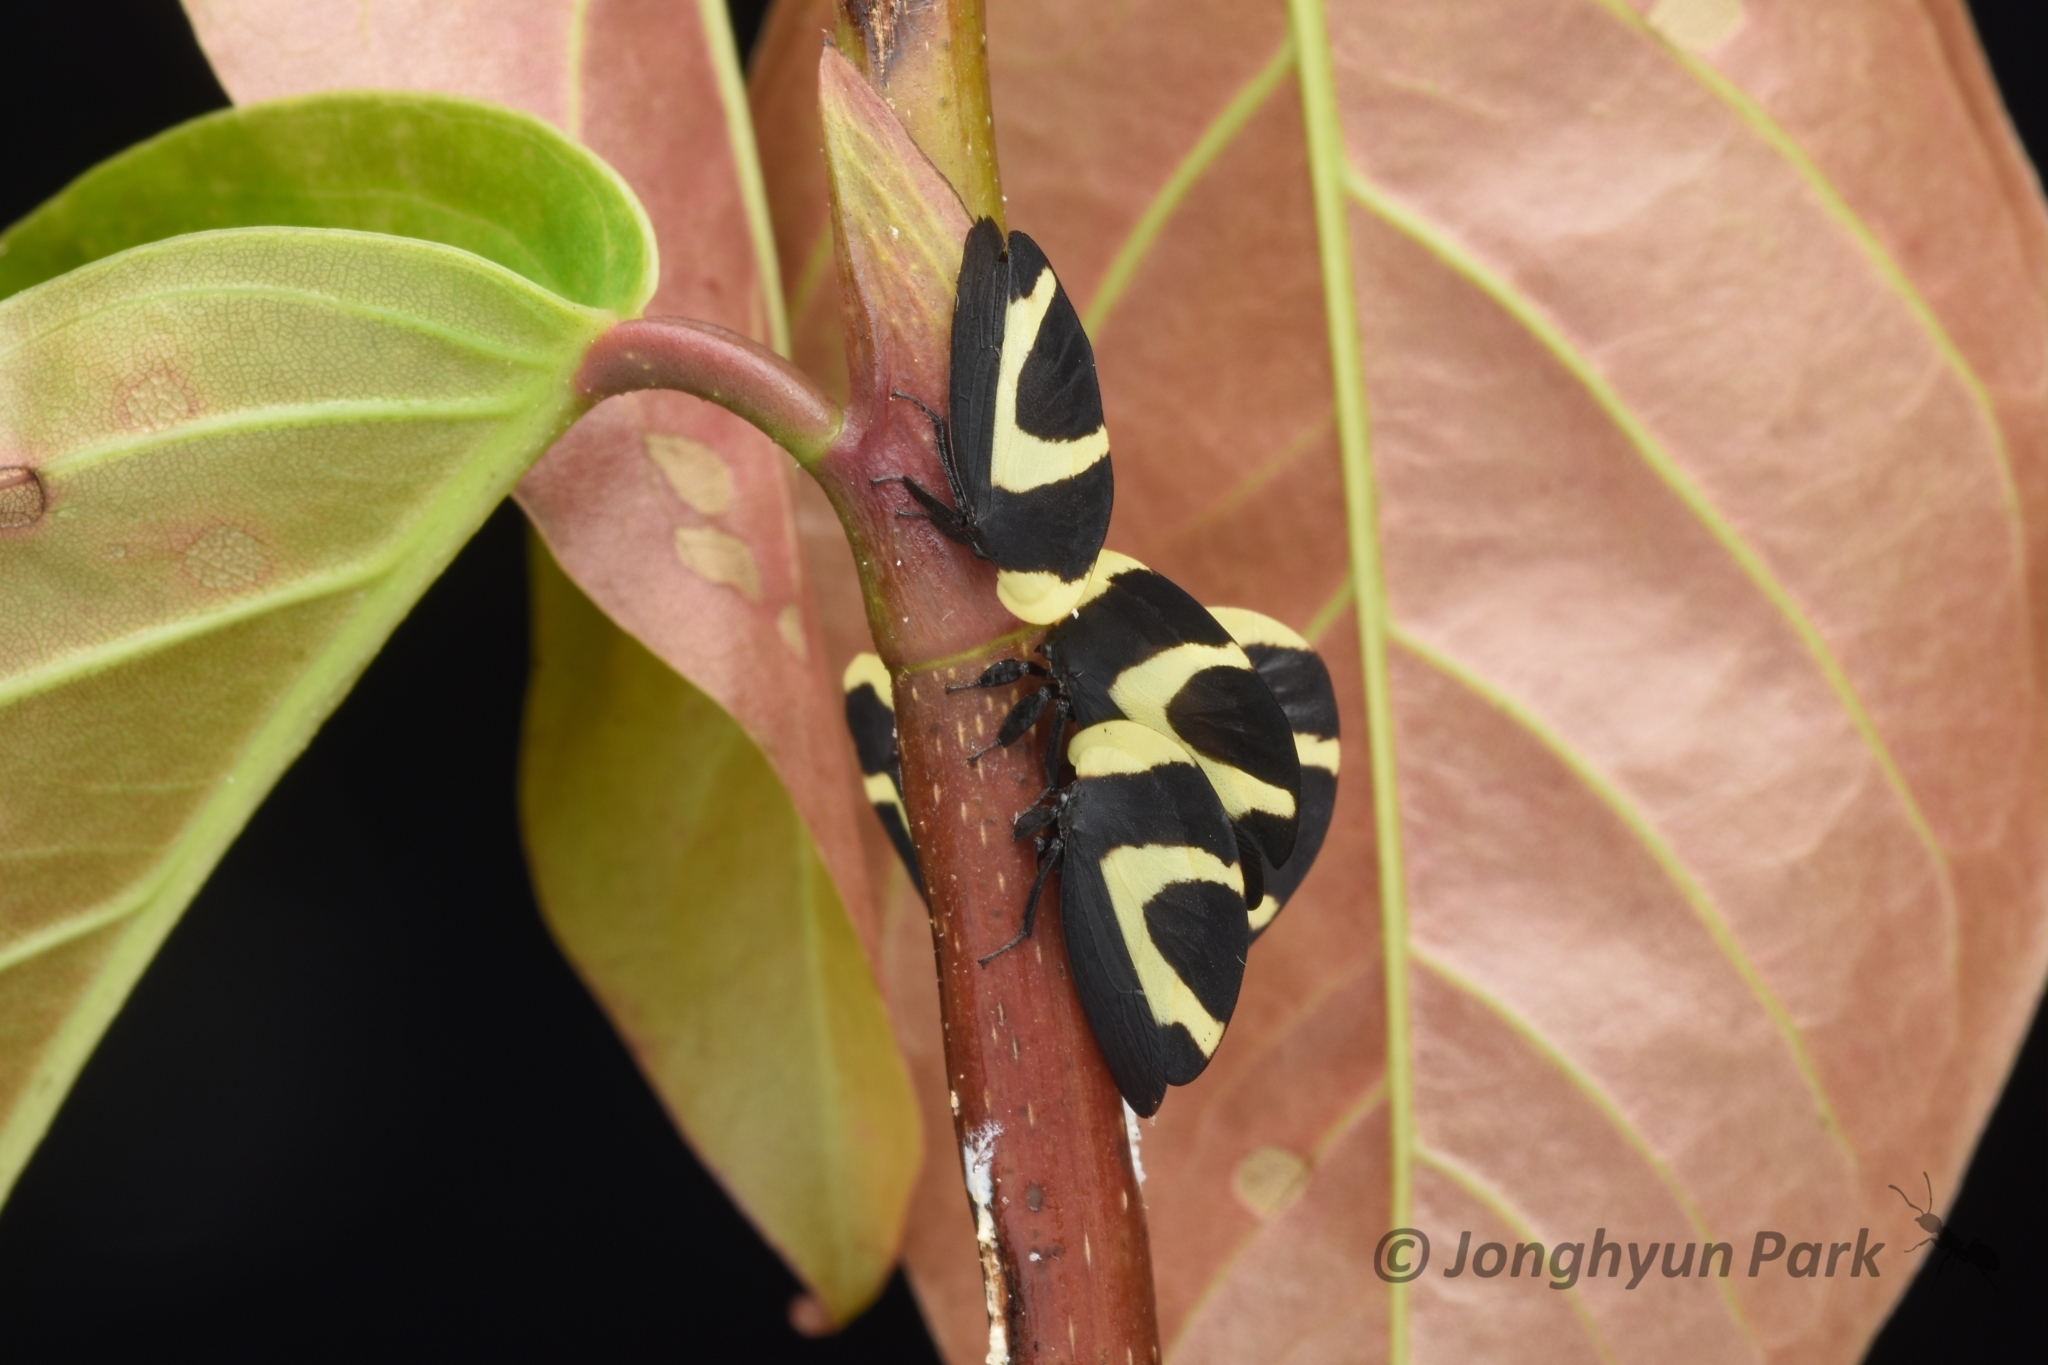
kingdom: Animalia
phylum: Arthropoda
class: Insecta
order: Hemiptera
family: Membracidae
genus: Membracis
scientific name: Membracis celsa
